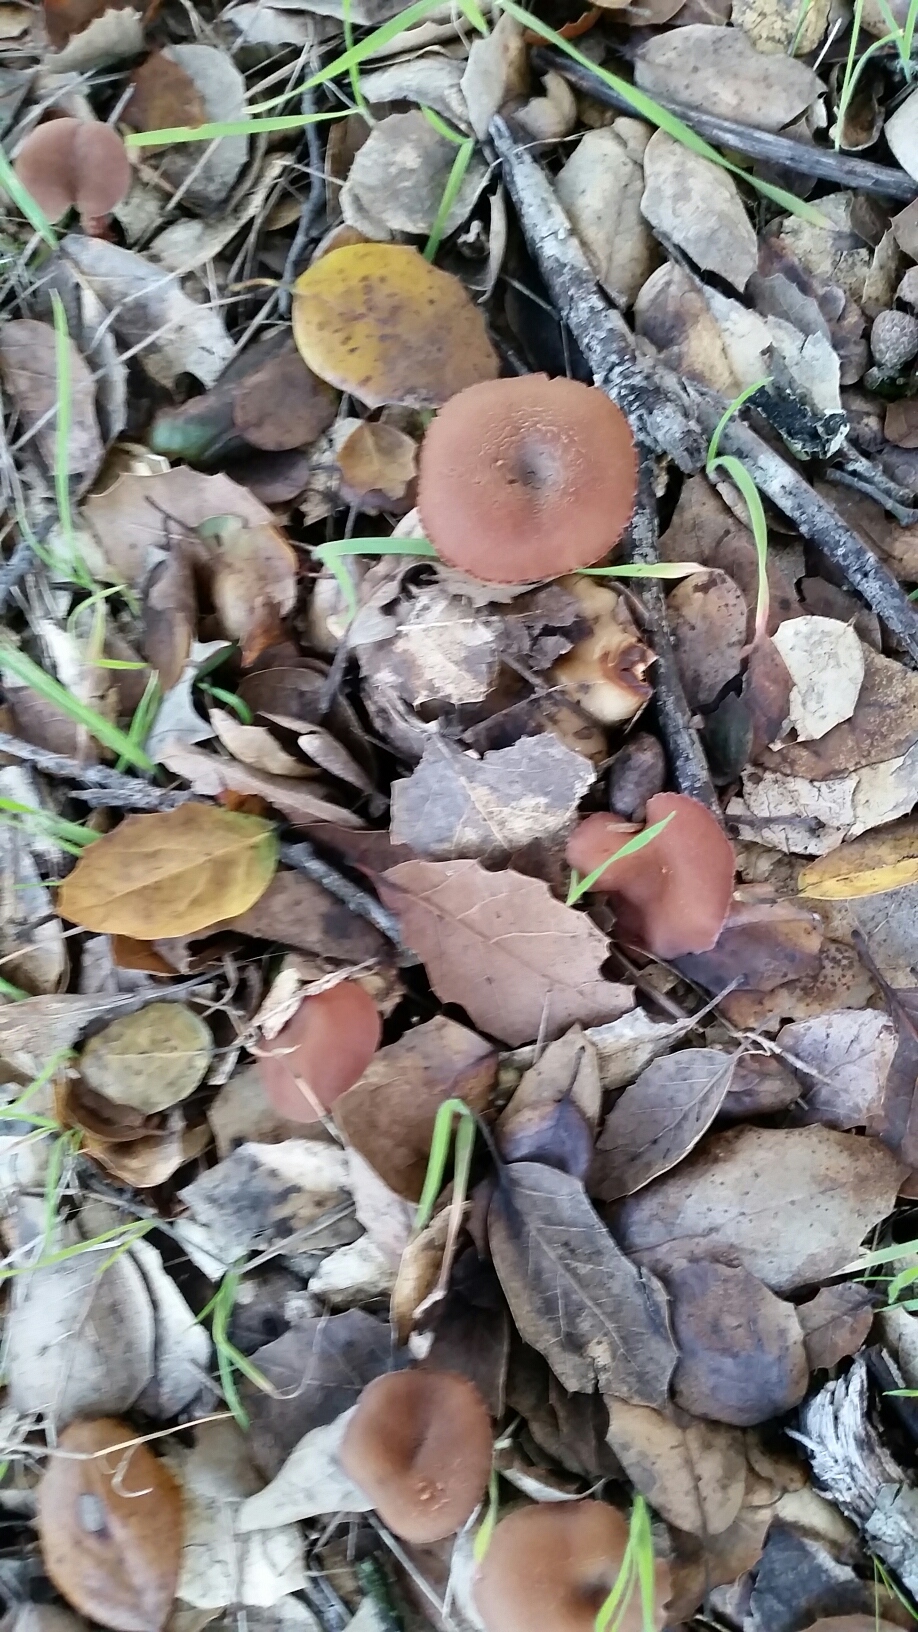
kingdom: Fungi
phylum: Basidiomycota
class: Agaricomycetes
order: Agaricales
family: Hydnangiaceae
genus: Laccaria
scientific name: Laccaria amethysteo-occidentalis
